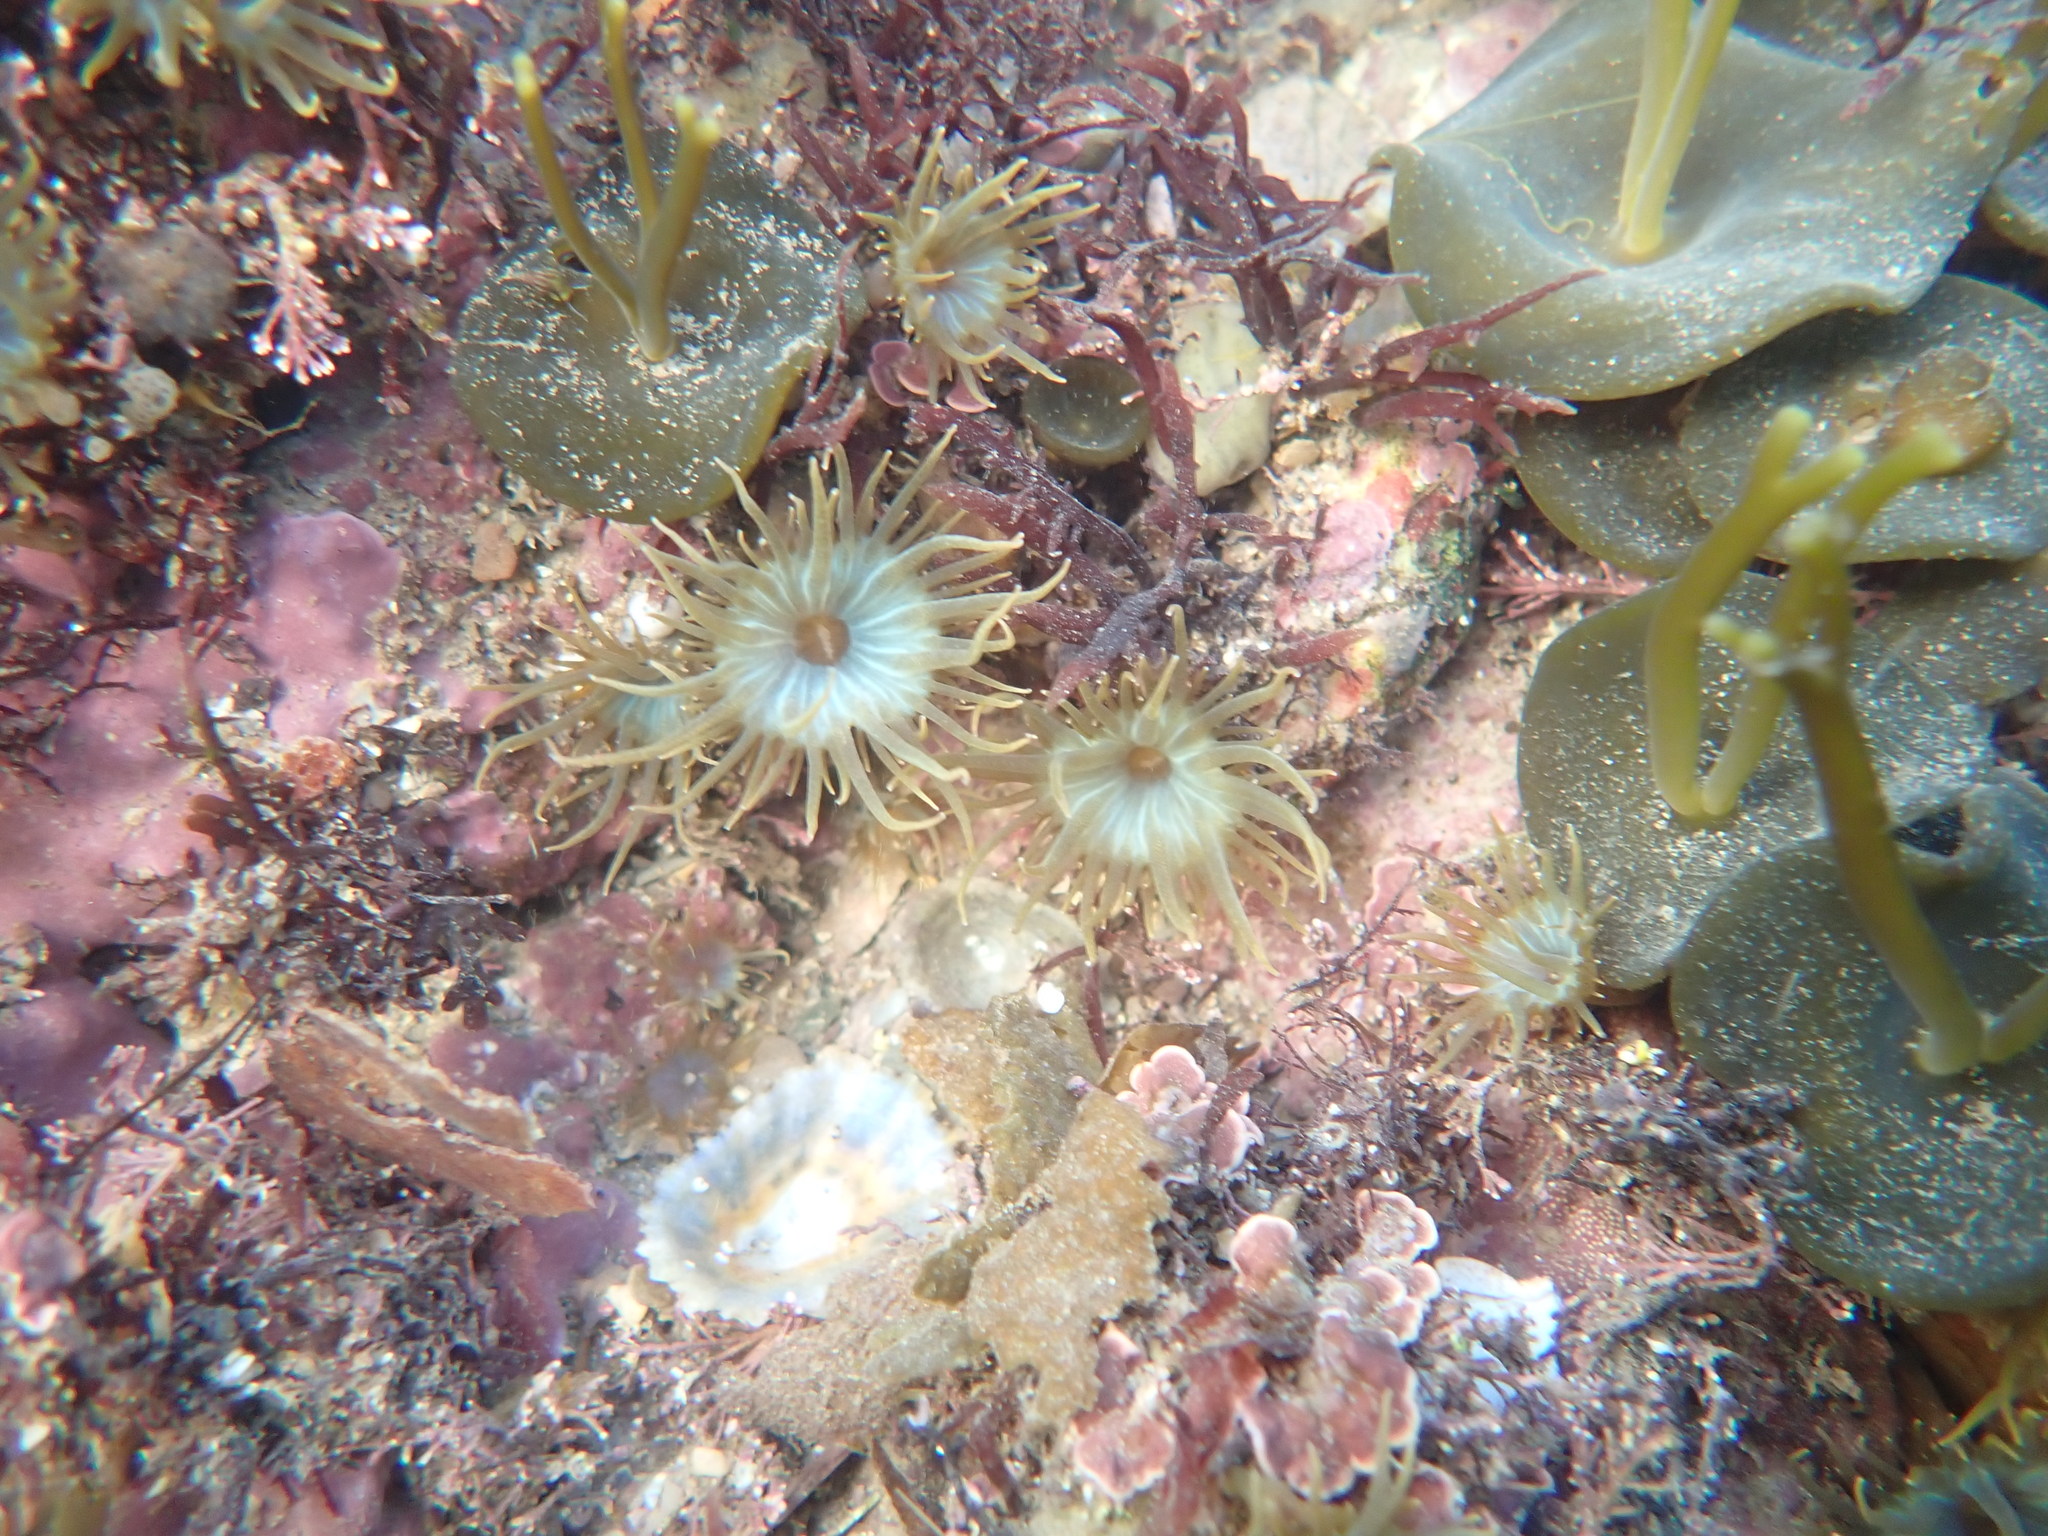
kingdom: Animalia
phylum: Cnidaria
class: Anthozoa
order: Actiniaria
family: Aiptasiidae
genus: Aiptasia
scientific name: Aiptasia couchii
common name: Trumpet anemone
